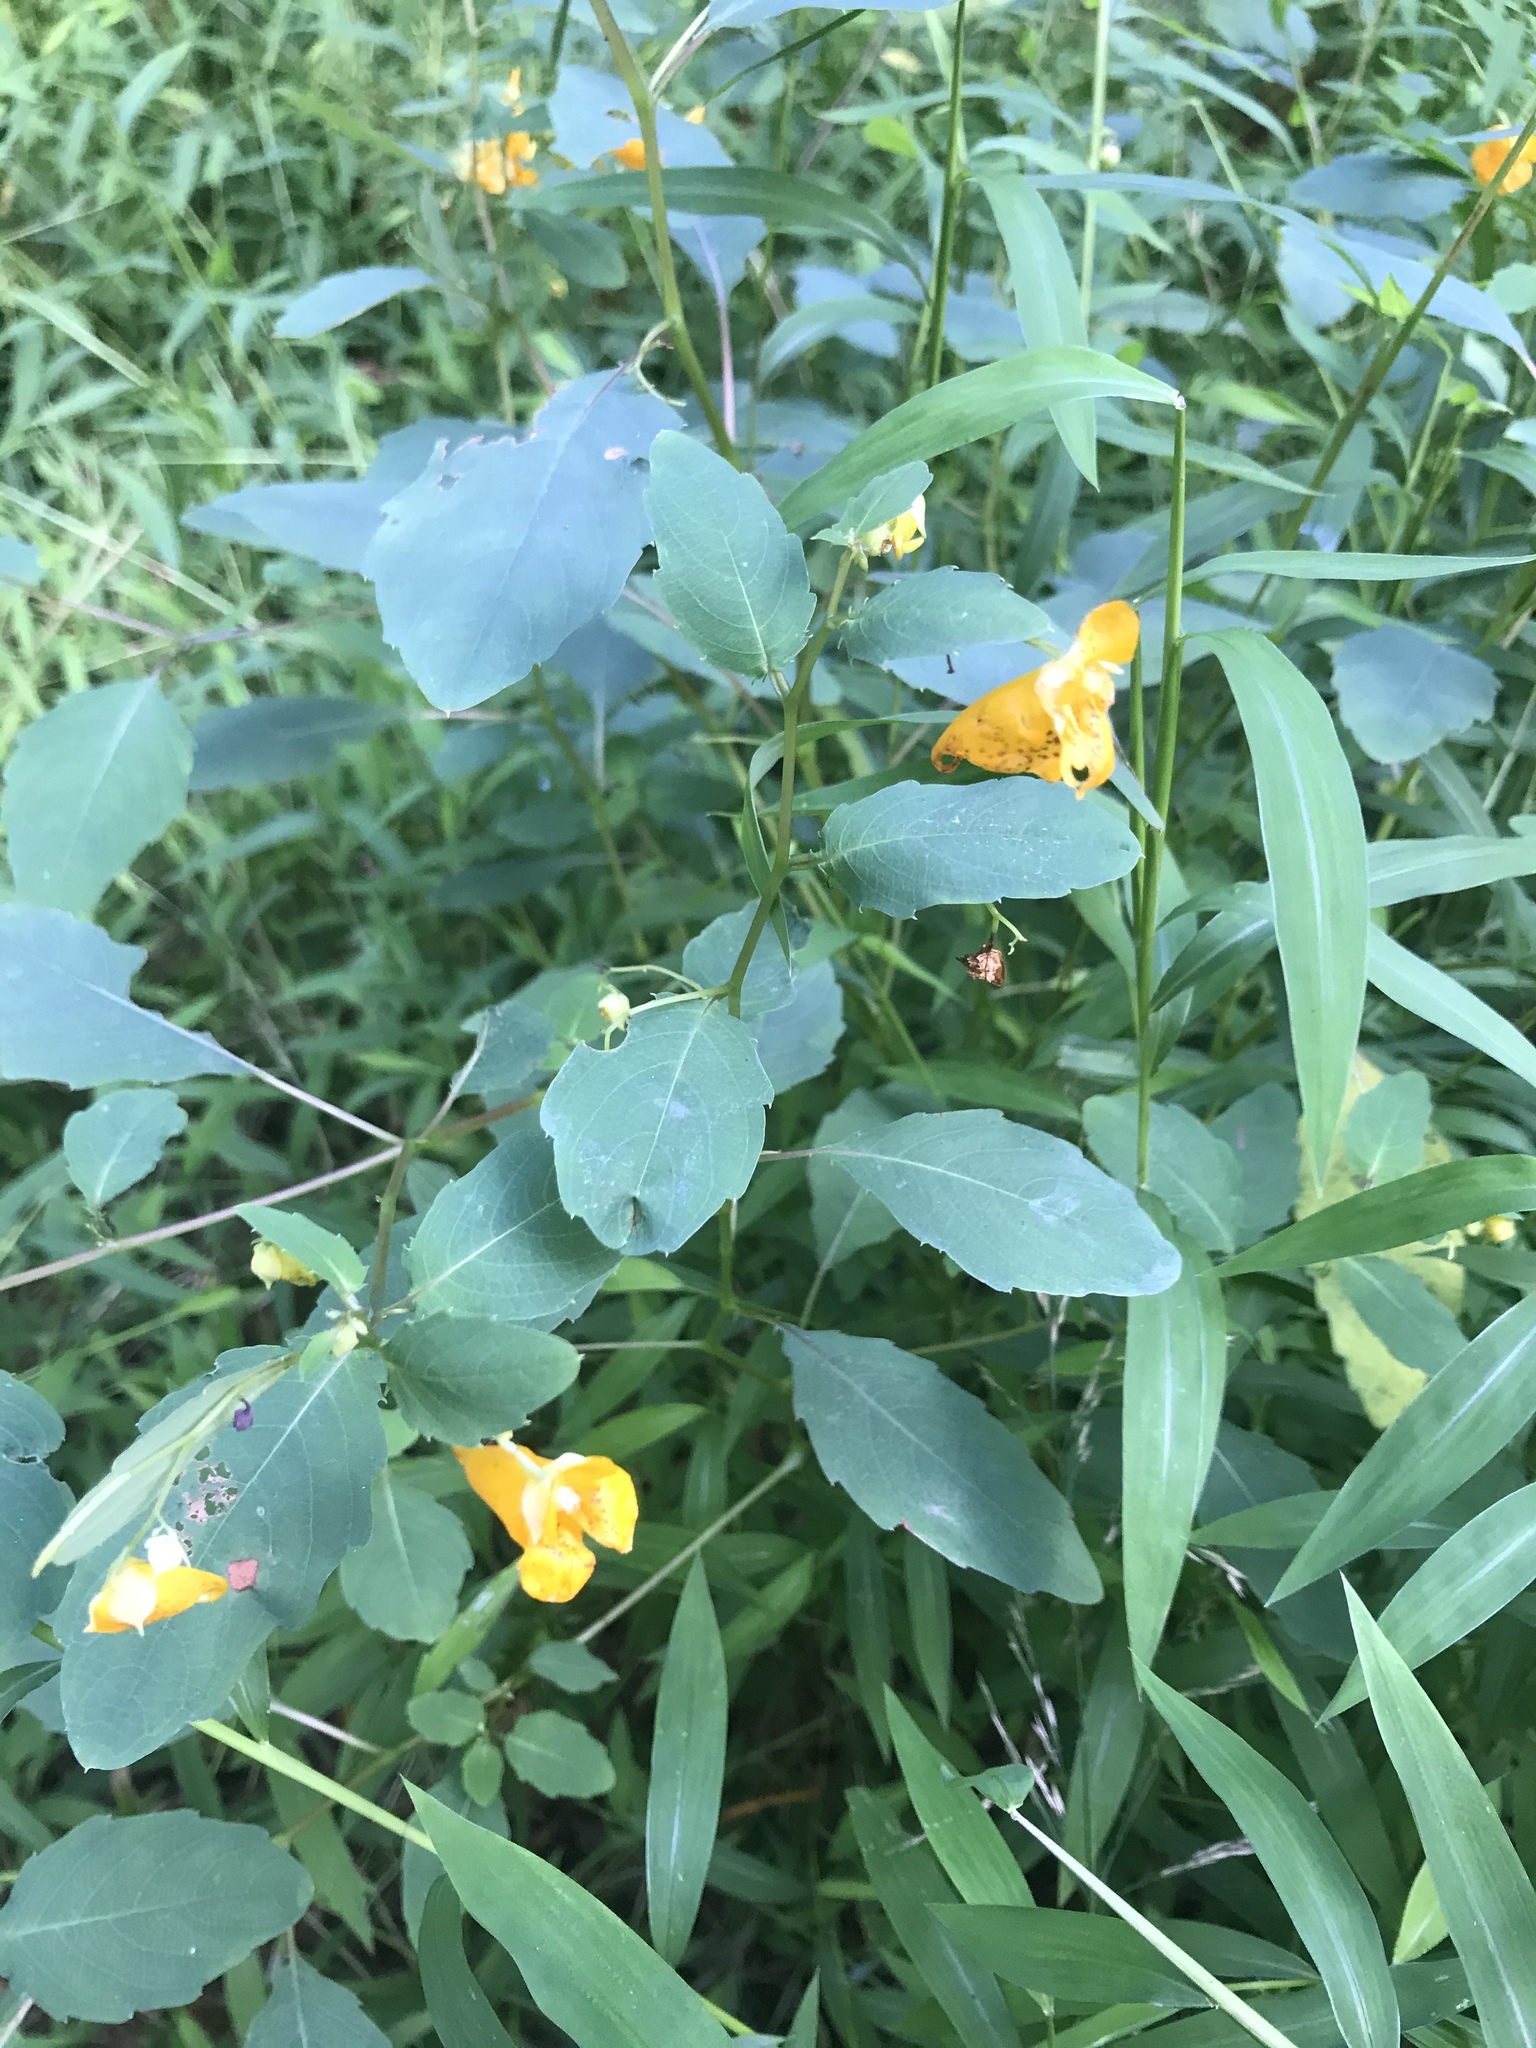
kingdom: Plantae
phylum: Tracheophyta
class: Magnoliopsida
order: Ericales
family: Balsaminaceae
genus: Impatiens
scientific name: Impatiens capensis
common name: Orange balsam
